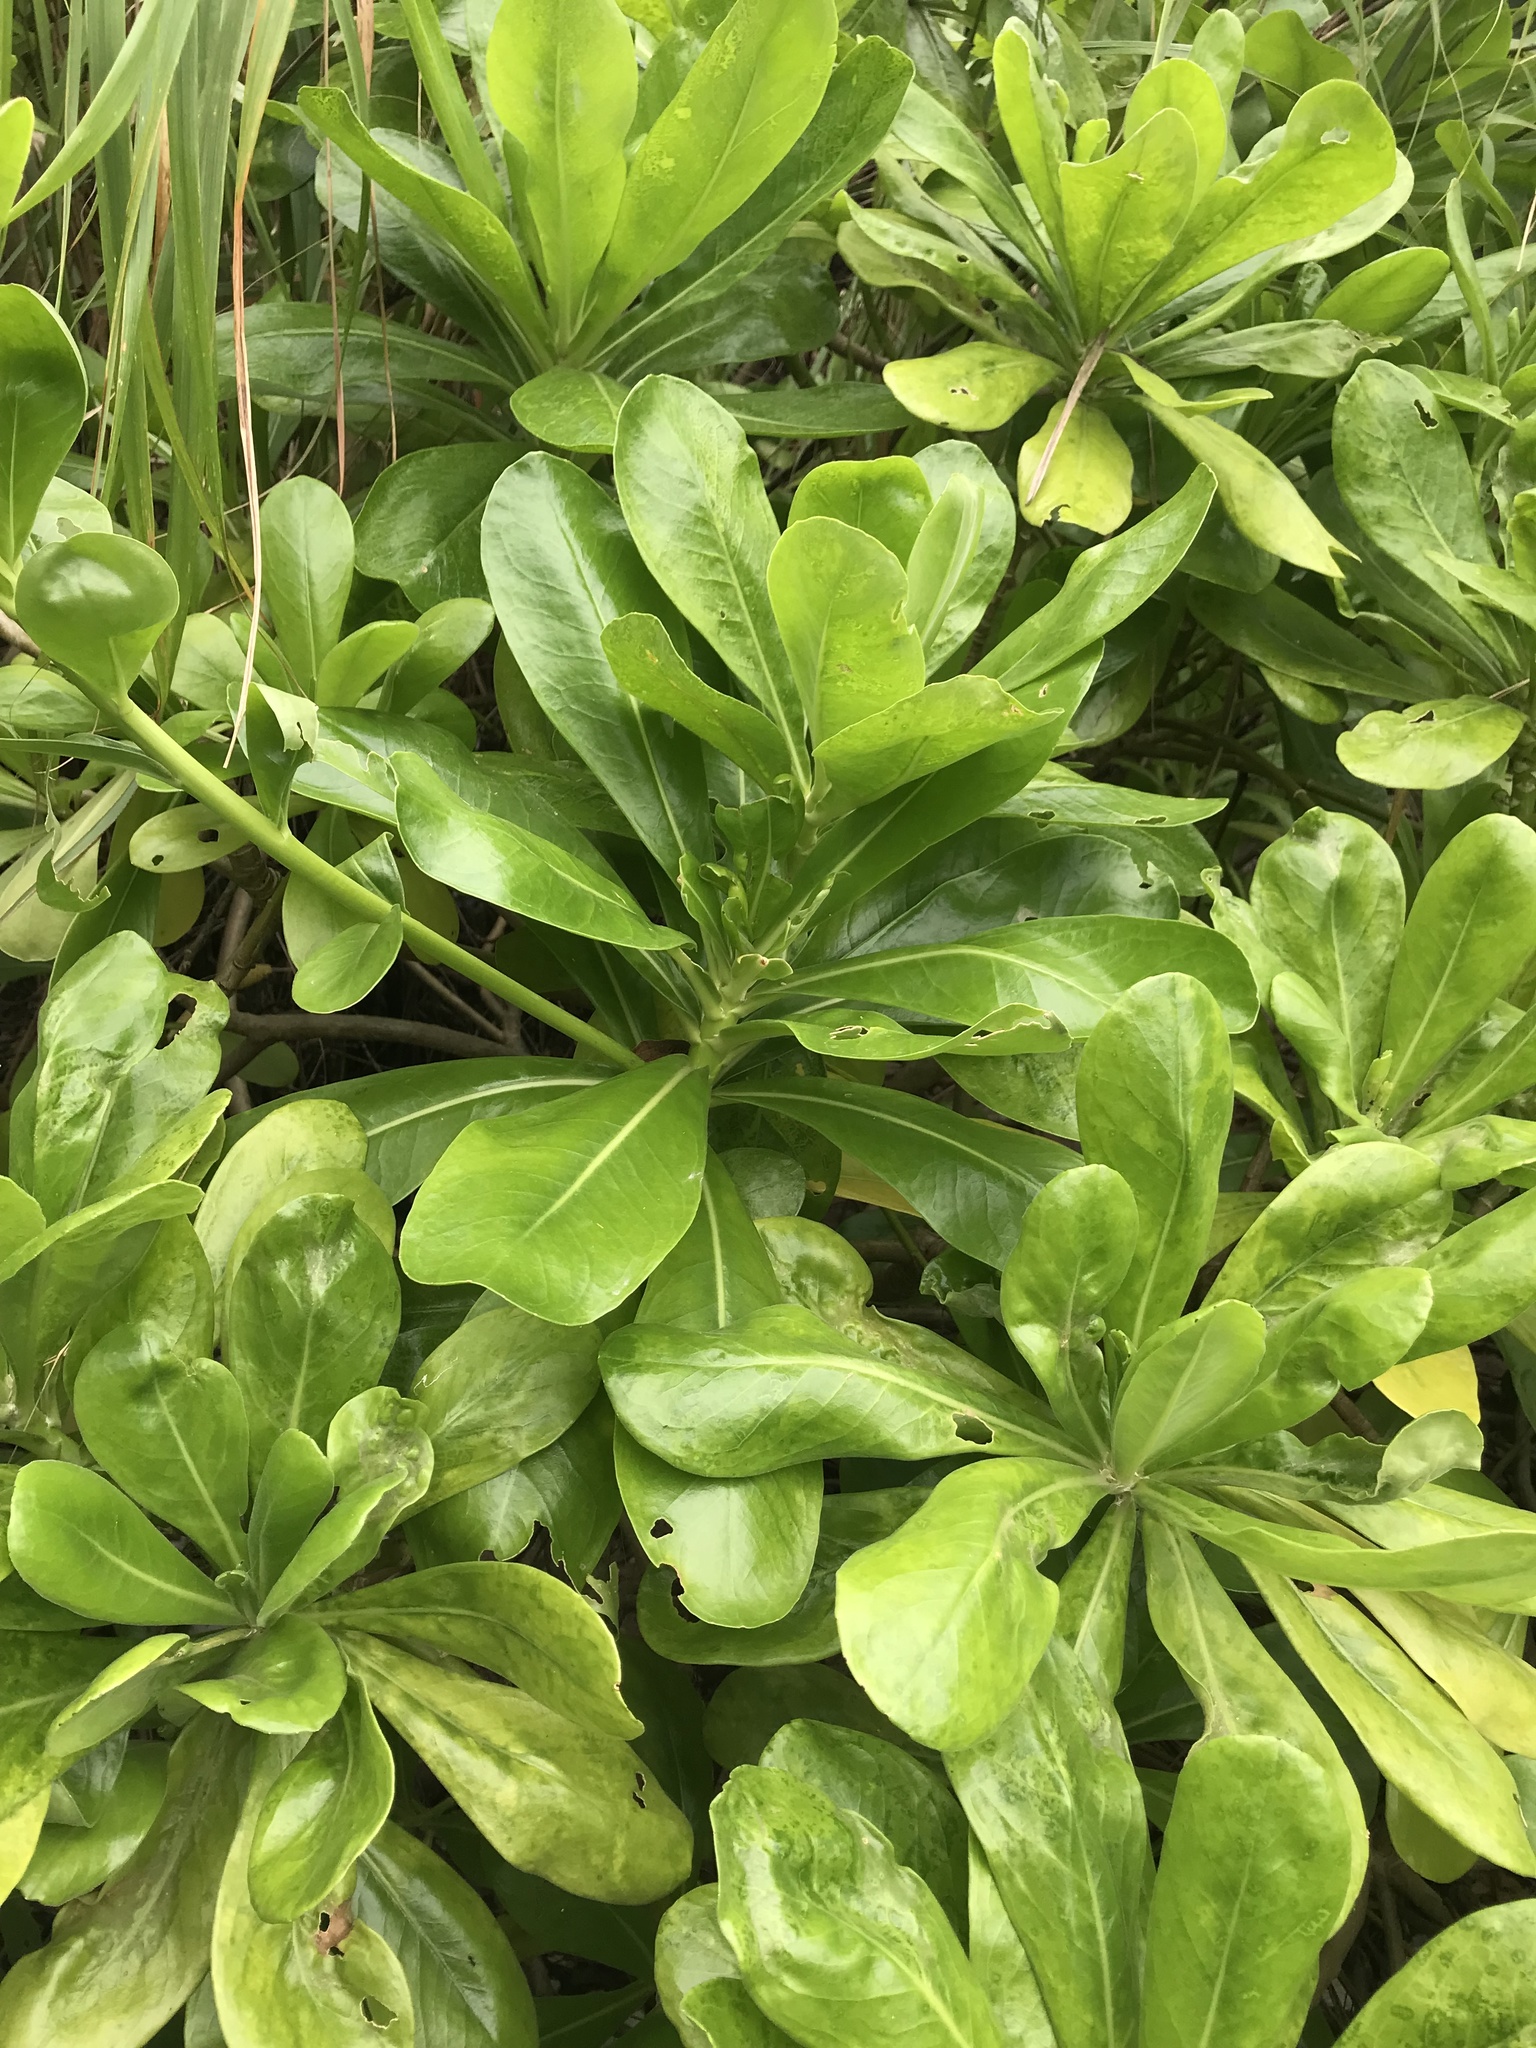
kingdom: Plantae
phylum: Tracheophyta
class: Magnoliopsida
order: Asterales
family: Goodeniaceae
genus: Scaevola
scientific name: Scaevola taccada
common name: Sea lettucetree
